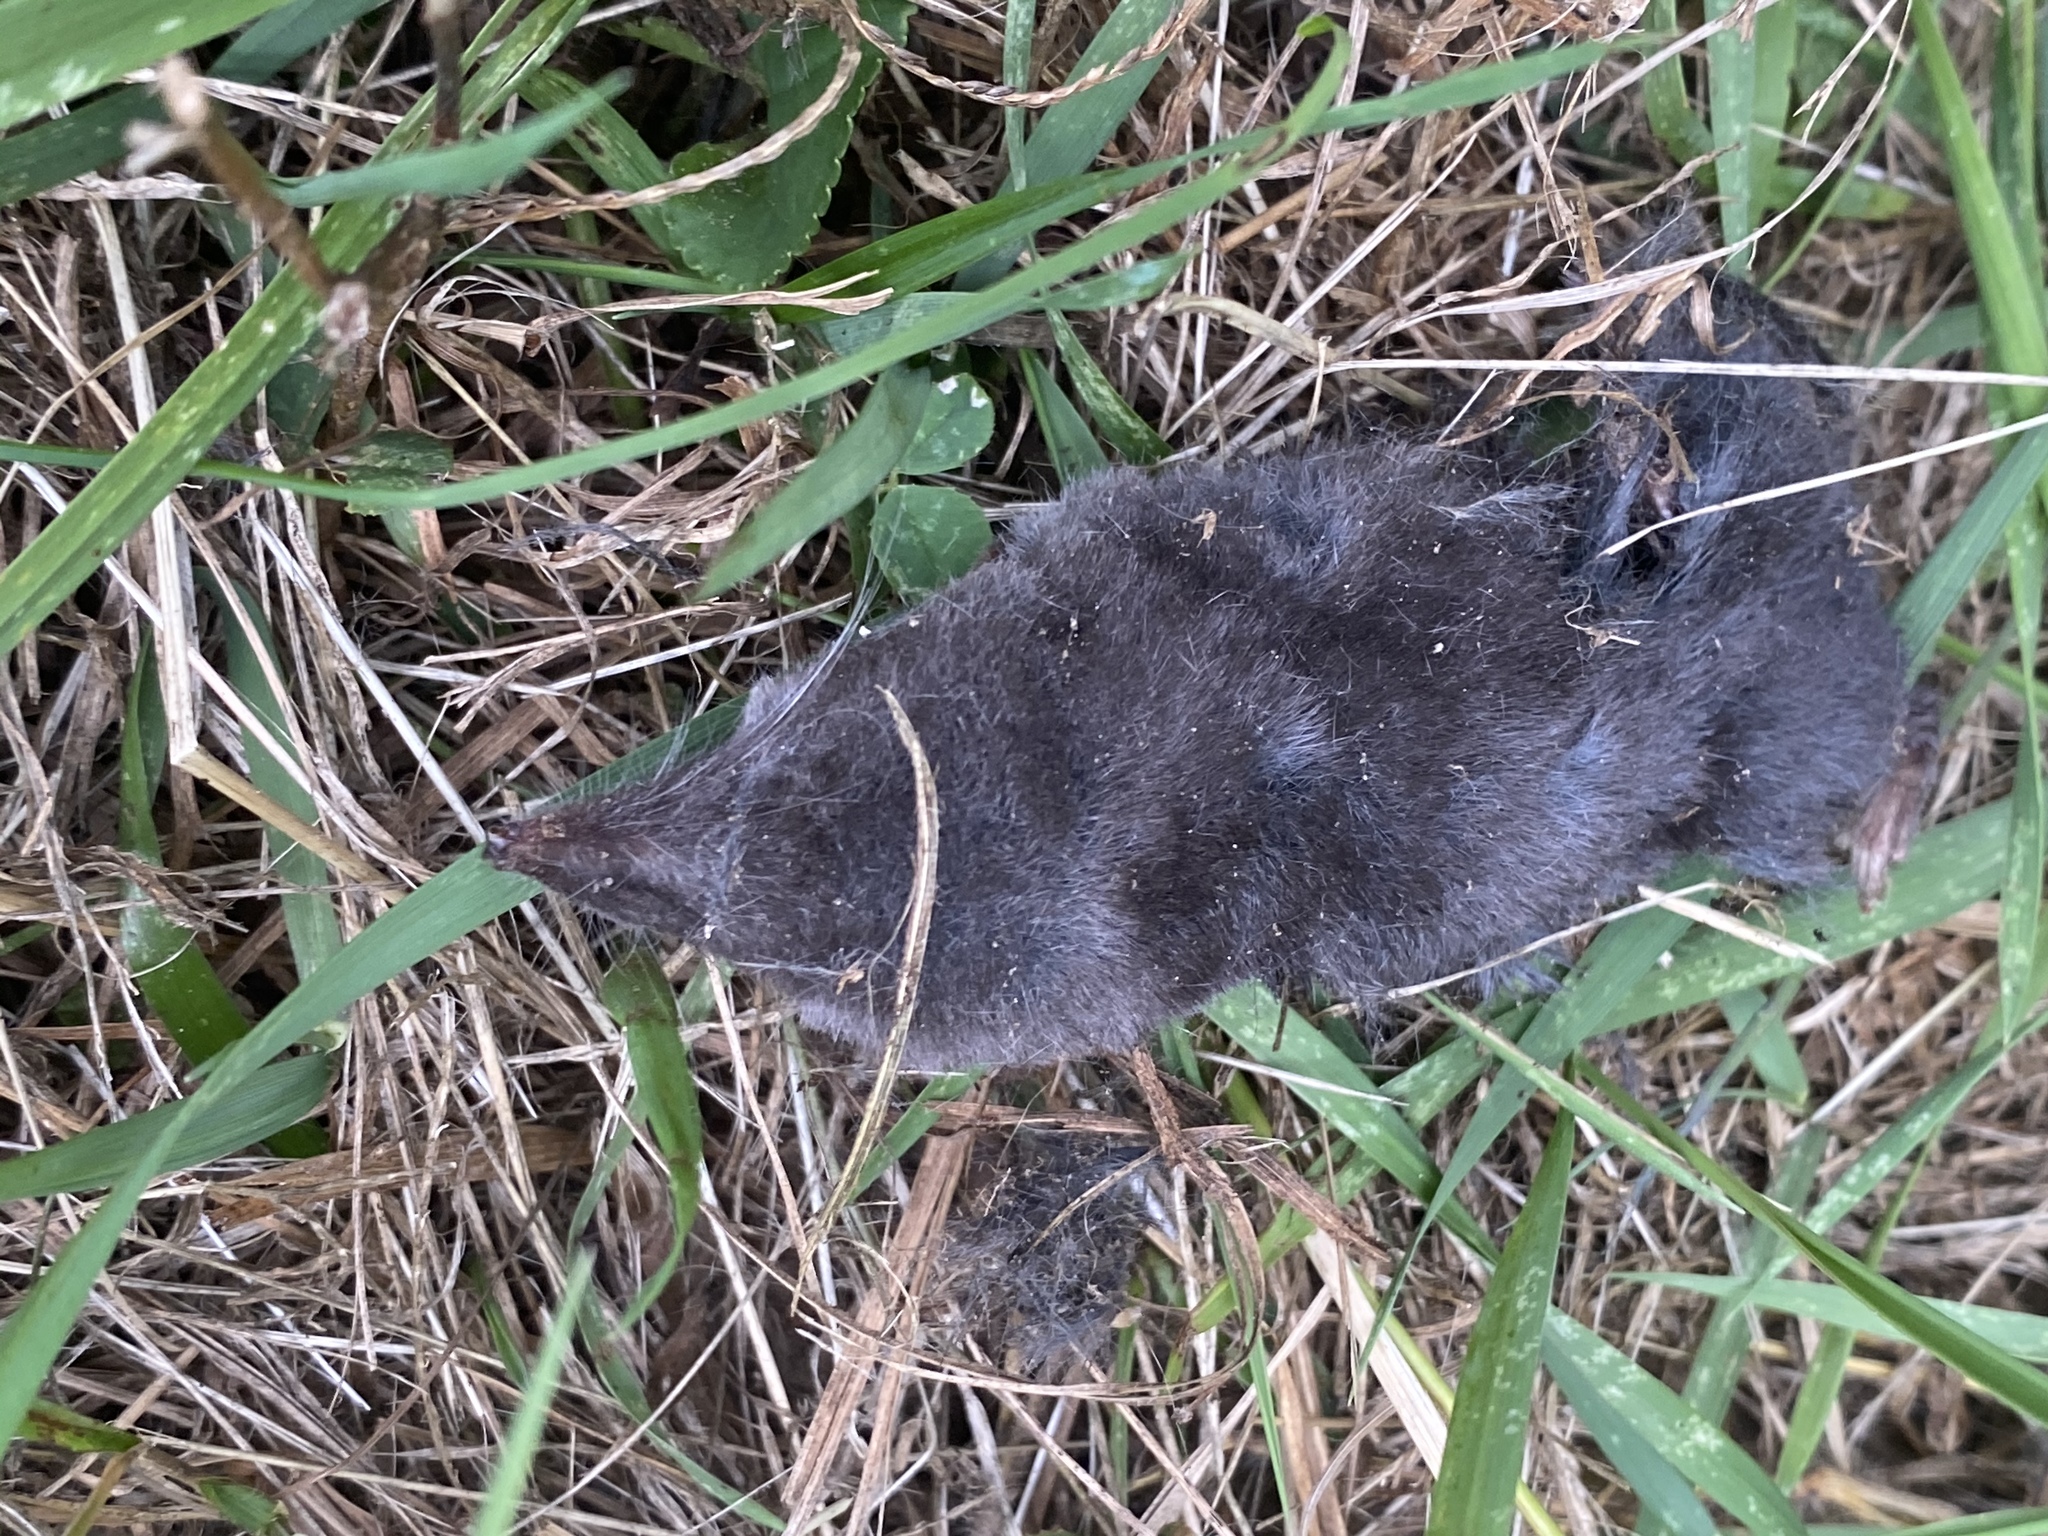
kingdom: Animalia
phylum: Chordata
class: Mammalia
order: Soricomorpha
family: Soricidae
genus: Blarina
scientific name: Blarina brevicauda
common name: Northern short-tailed shrew
